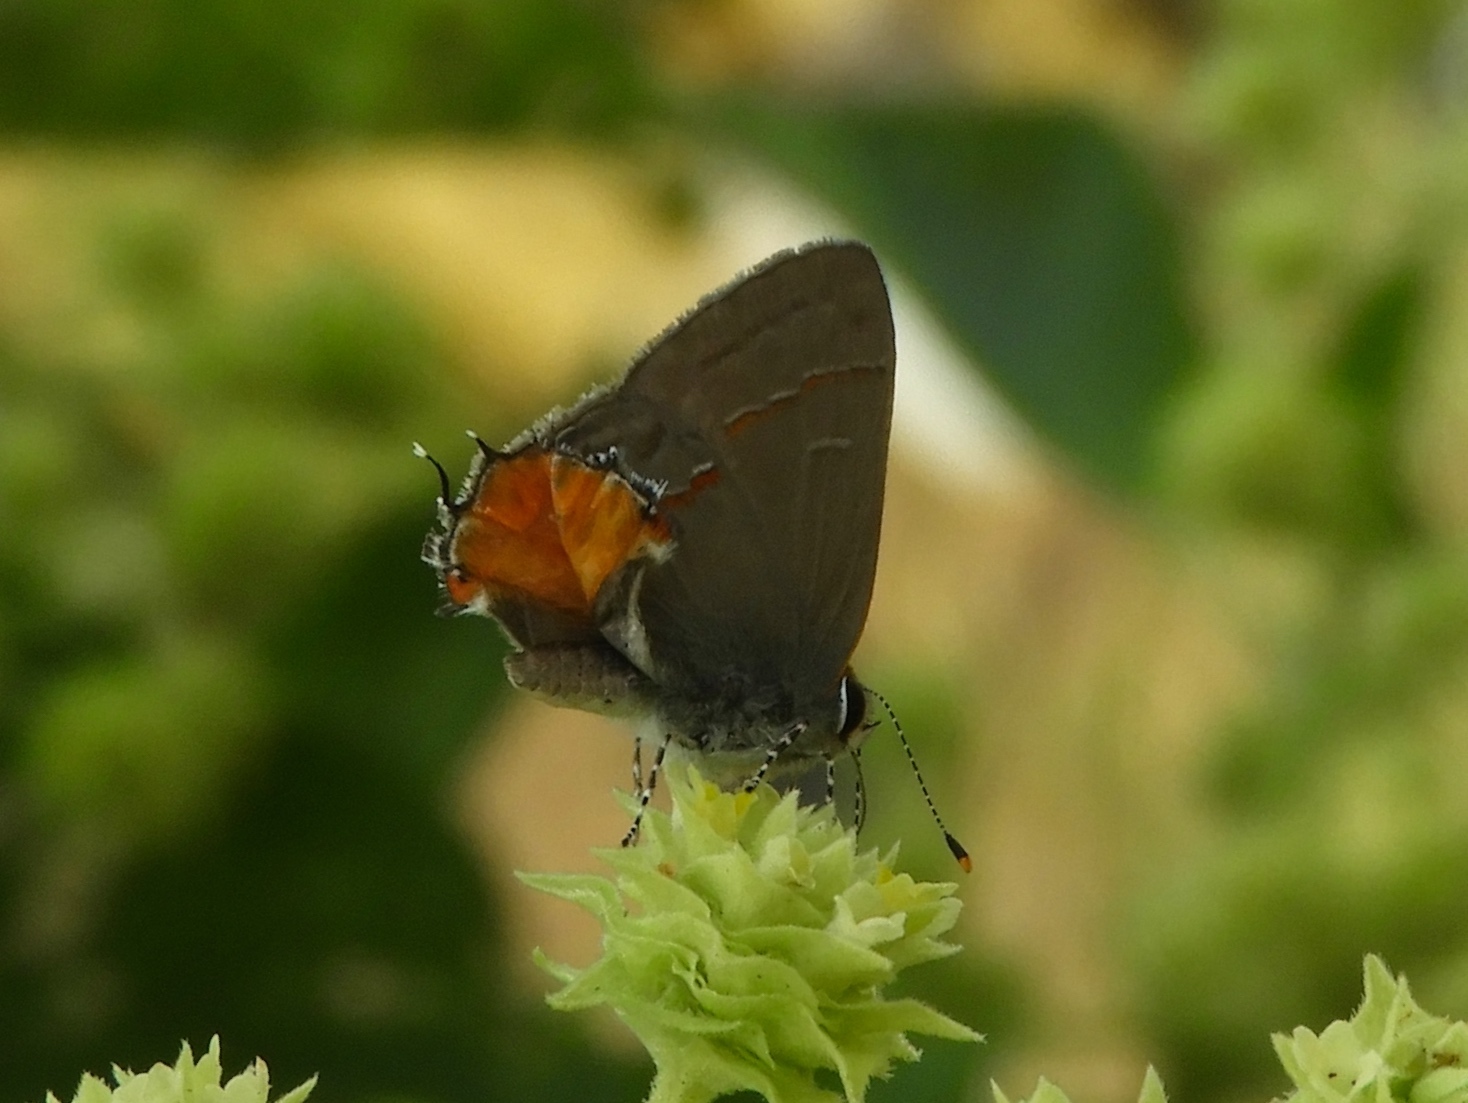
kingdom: Animalia
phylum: Arthropoda
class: Insecta
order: Lepidoptera
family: Lycaenidae
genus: Electrostrymon
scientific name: Electrostrymon endymion
